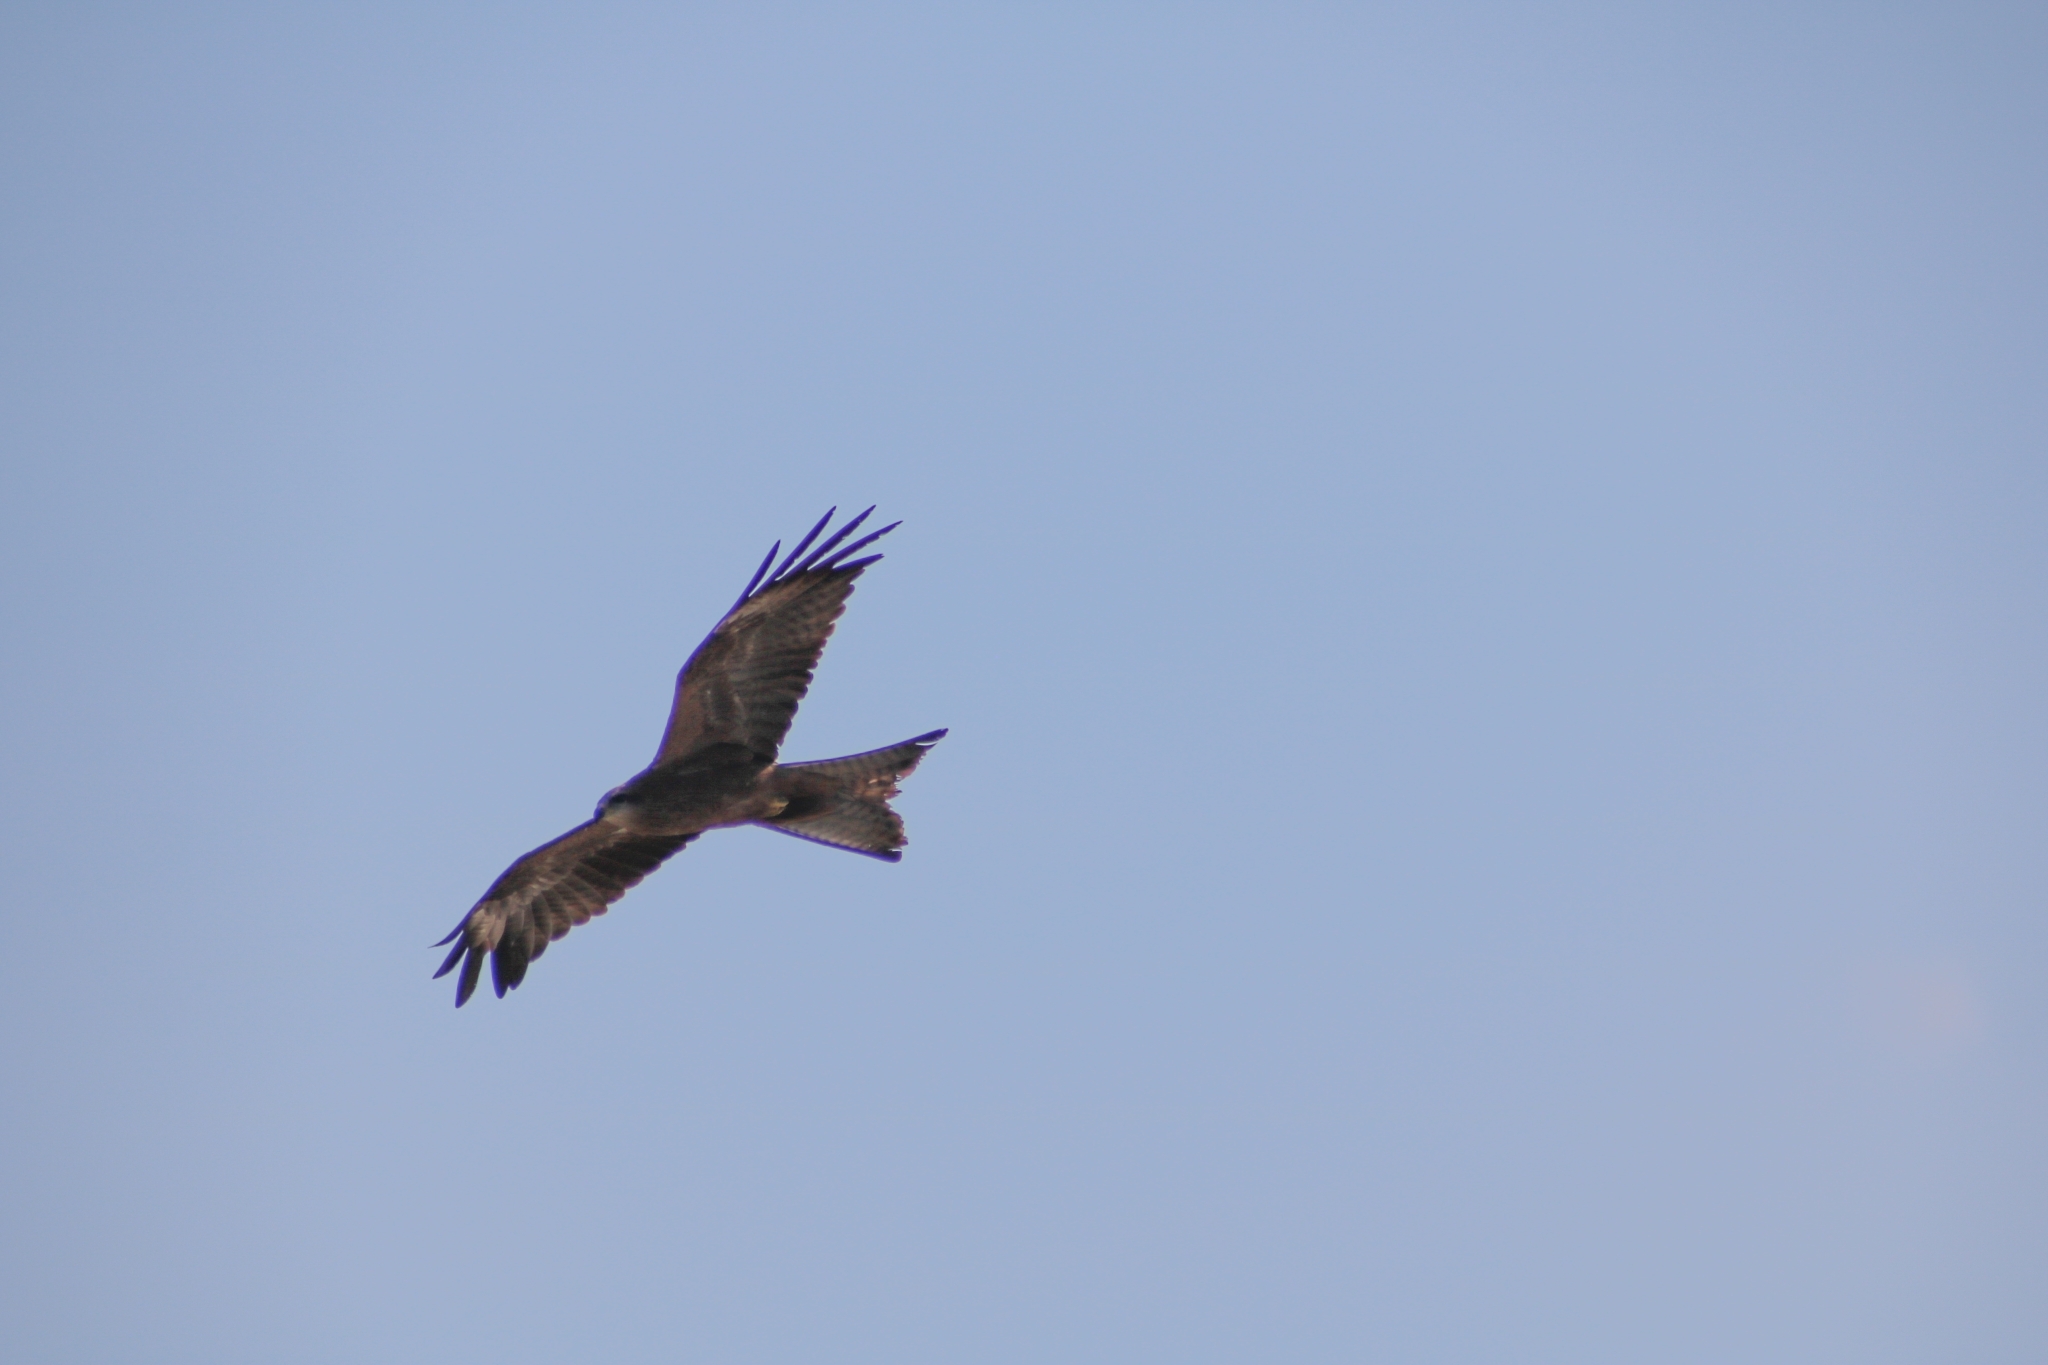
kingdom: Animalia
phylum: Chordata
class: Aves
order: Accipitriformes
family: Accipitridae
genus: Milvus
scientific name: Milvus migrans
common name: Black kite
